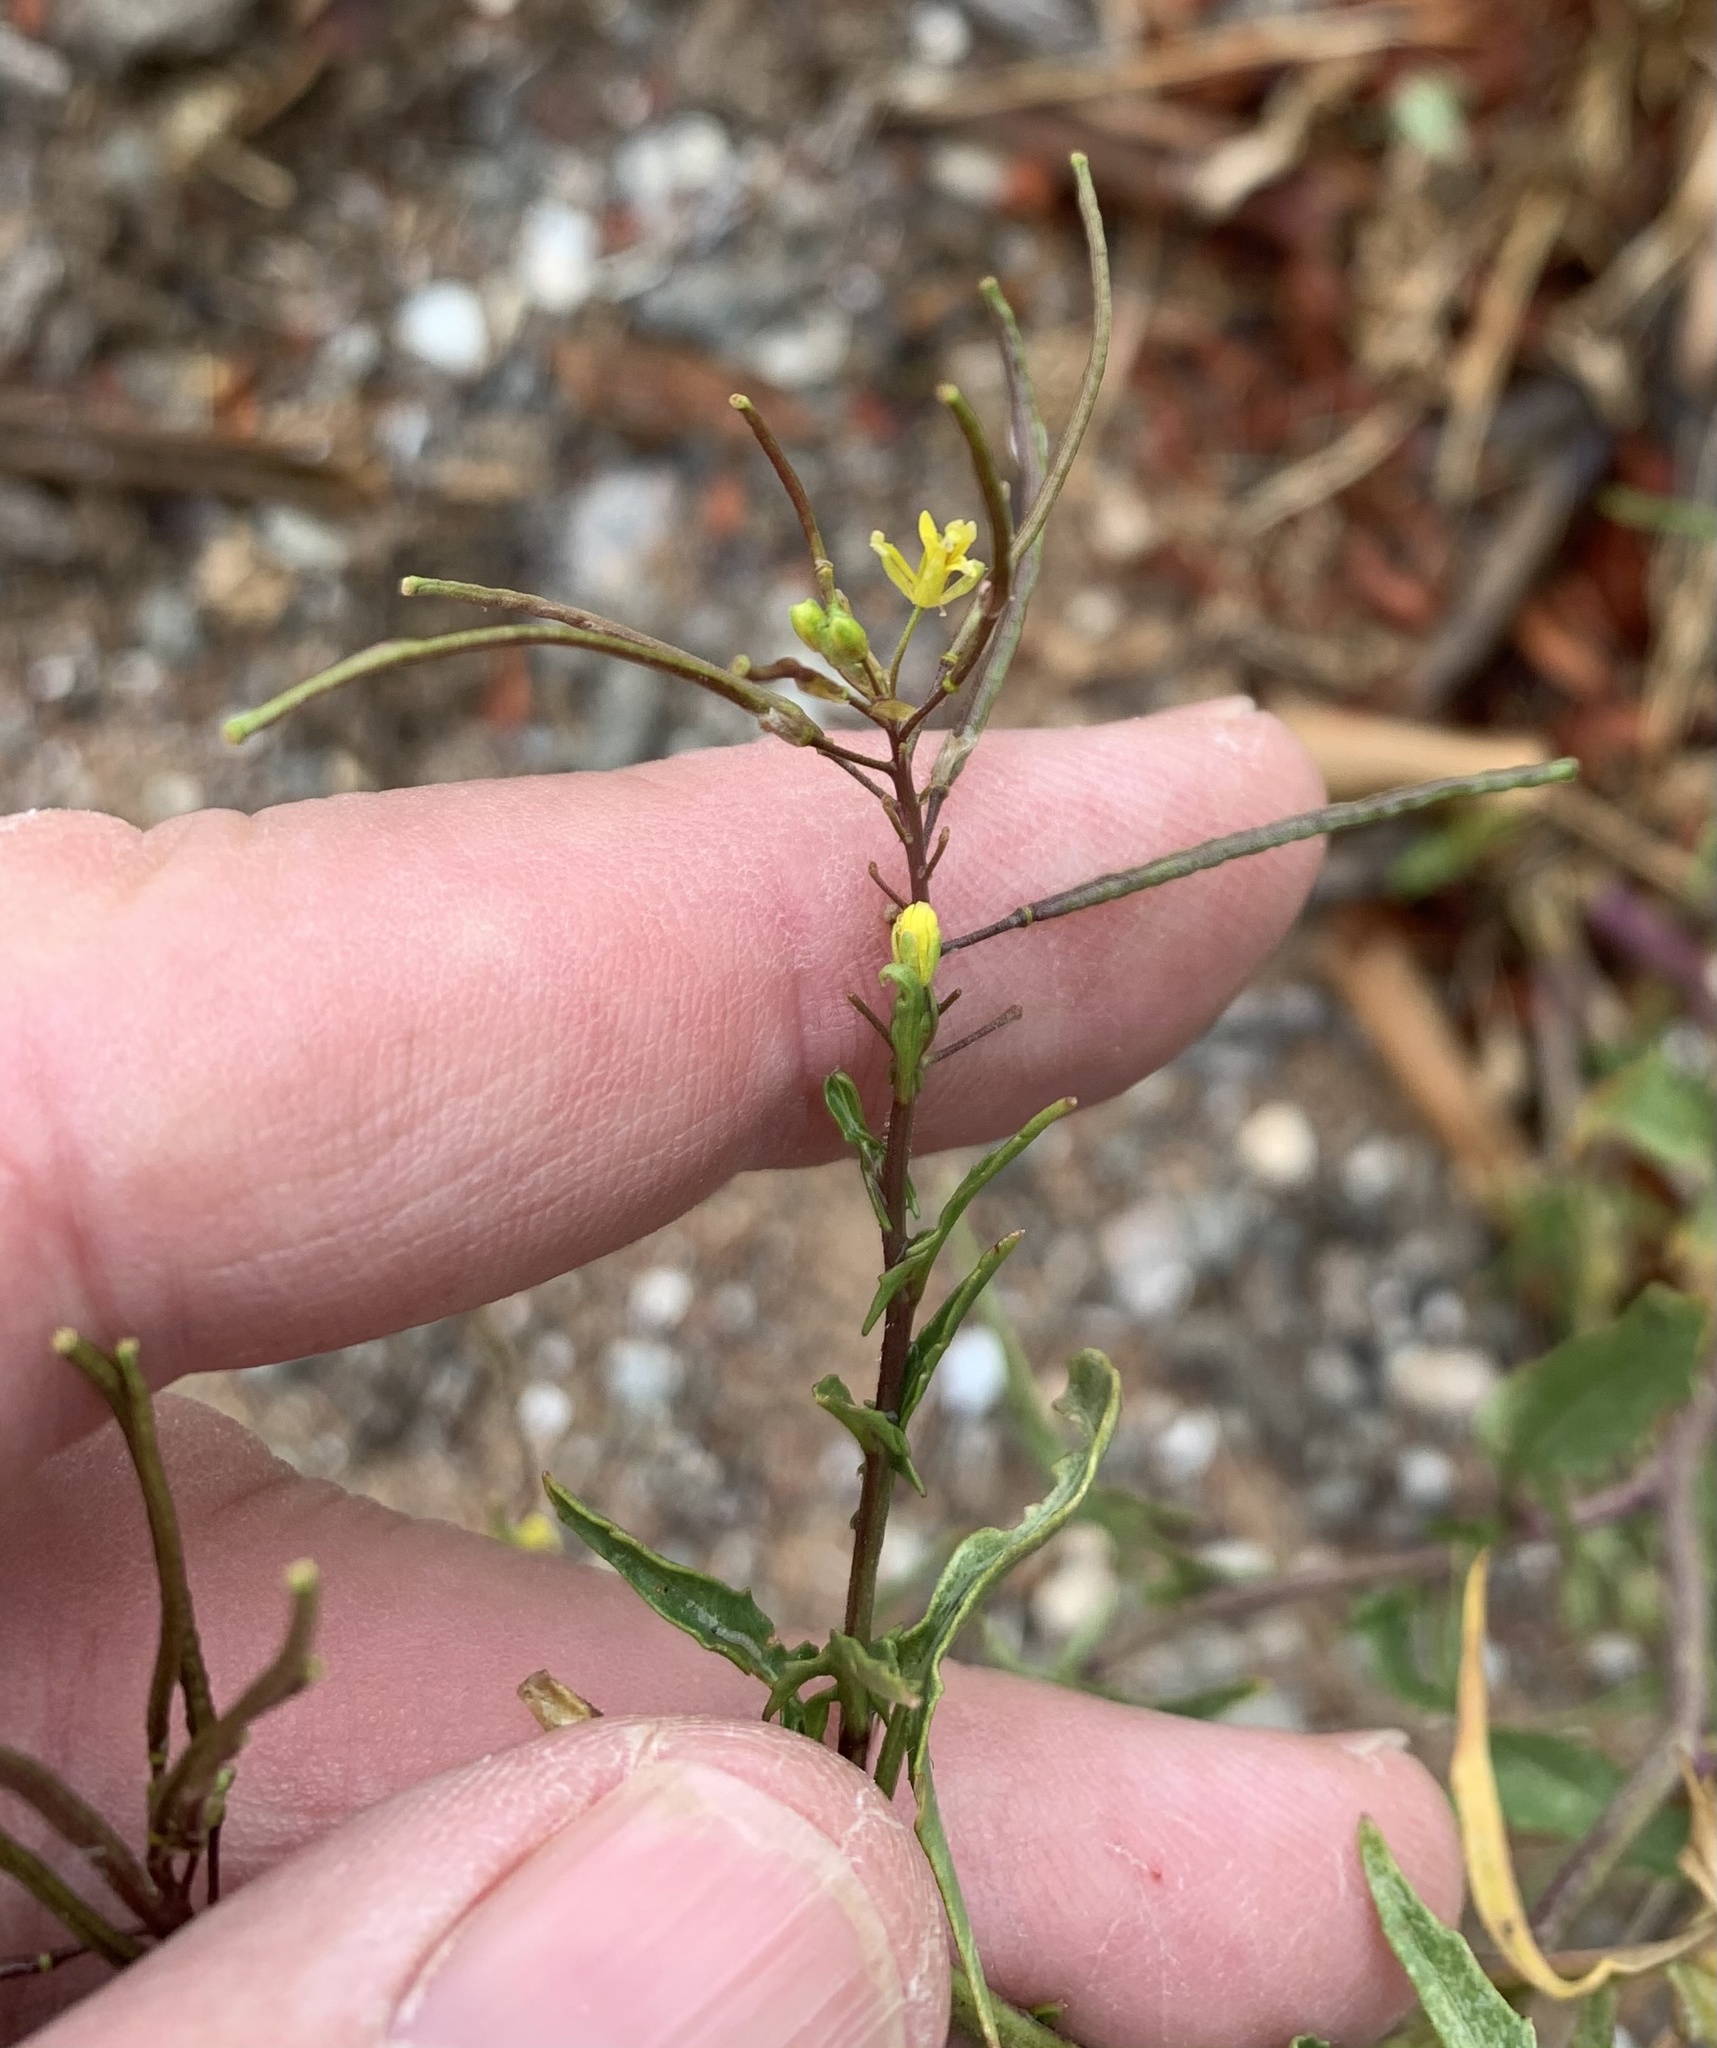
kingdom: Plantae
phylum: Tracheophyta
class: Magnoliopsida
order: Brassicales
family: Brassicaceae
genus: Sisymbrium
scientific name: Sisymbrium irio
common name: London rocket
